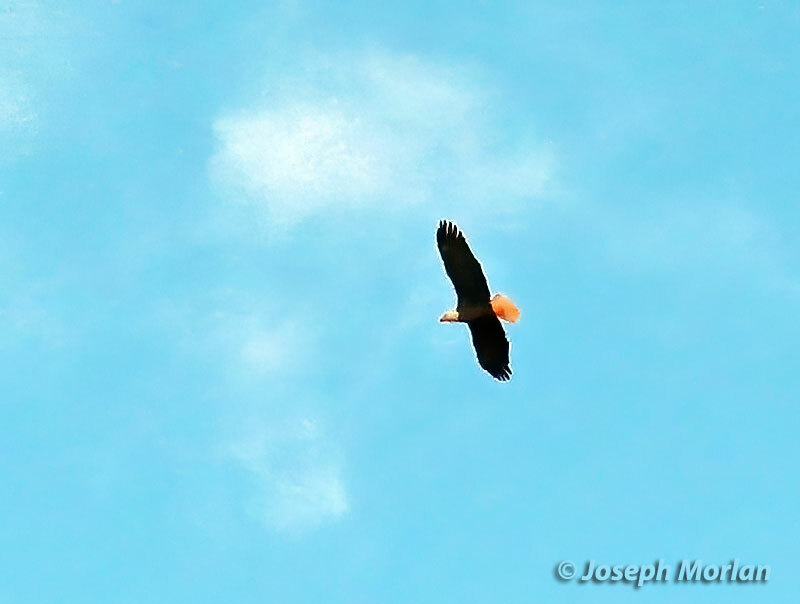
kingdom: Animalia
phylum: Chordata
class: Aves
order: Accipitriformes
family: Accipitridae
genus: Haliaeetus
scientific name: Haliaeetus leucocephalus
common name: Bald eagle
